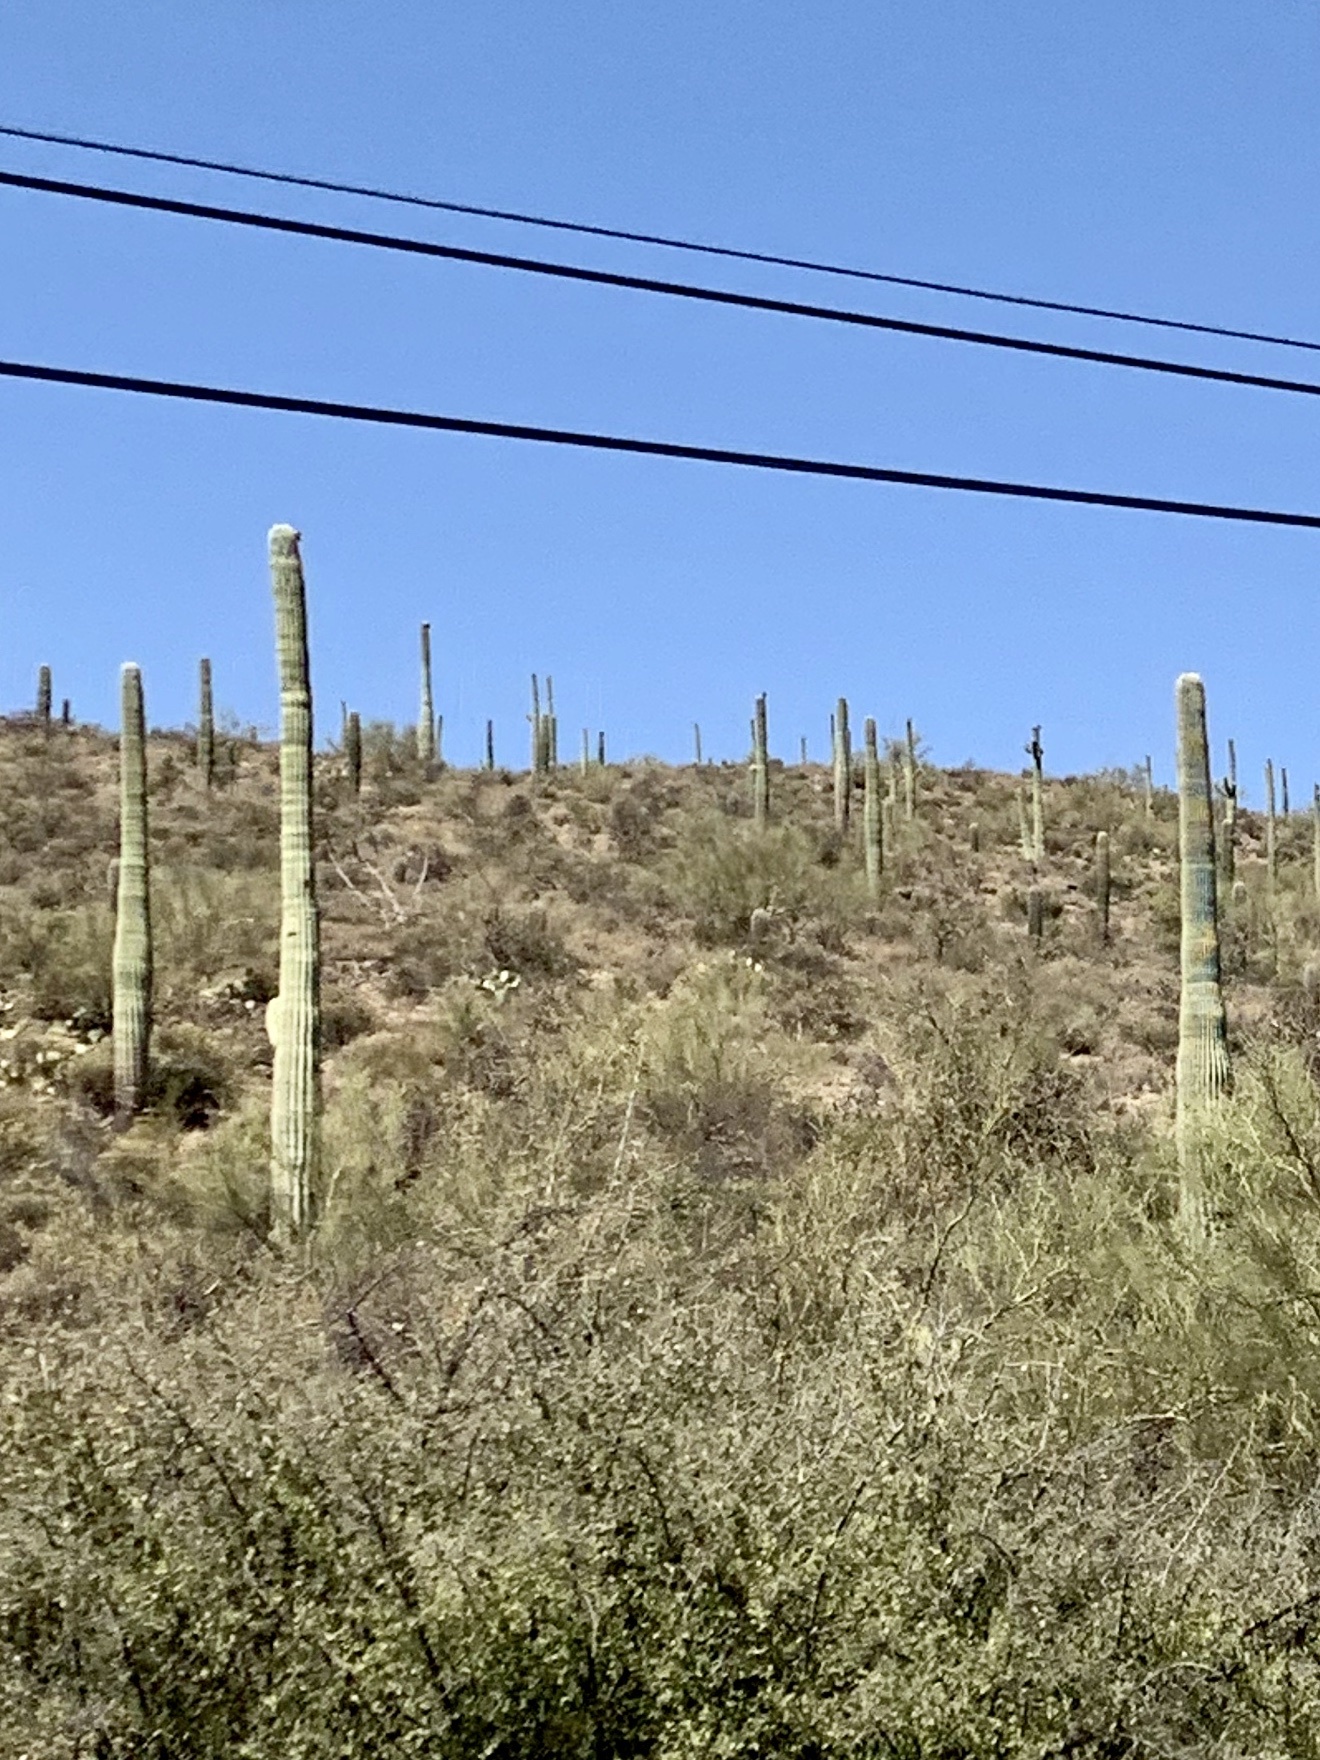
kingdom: Plantae
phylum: Tracheophyta
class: Magnoliopsida
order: Caryophyllales
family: Cactaceae
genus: Carnegiea
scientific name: Carnegiea gigantea
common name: Saguaro
